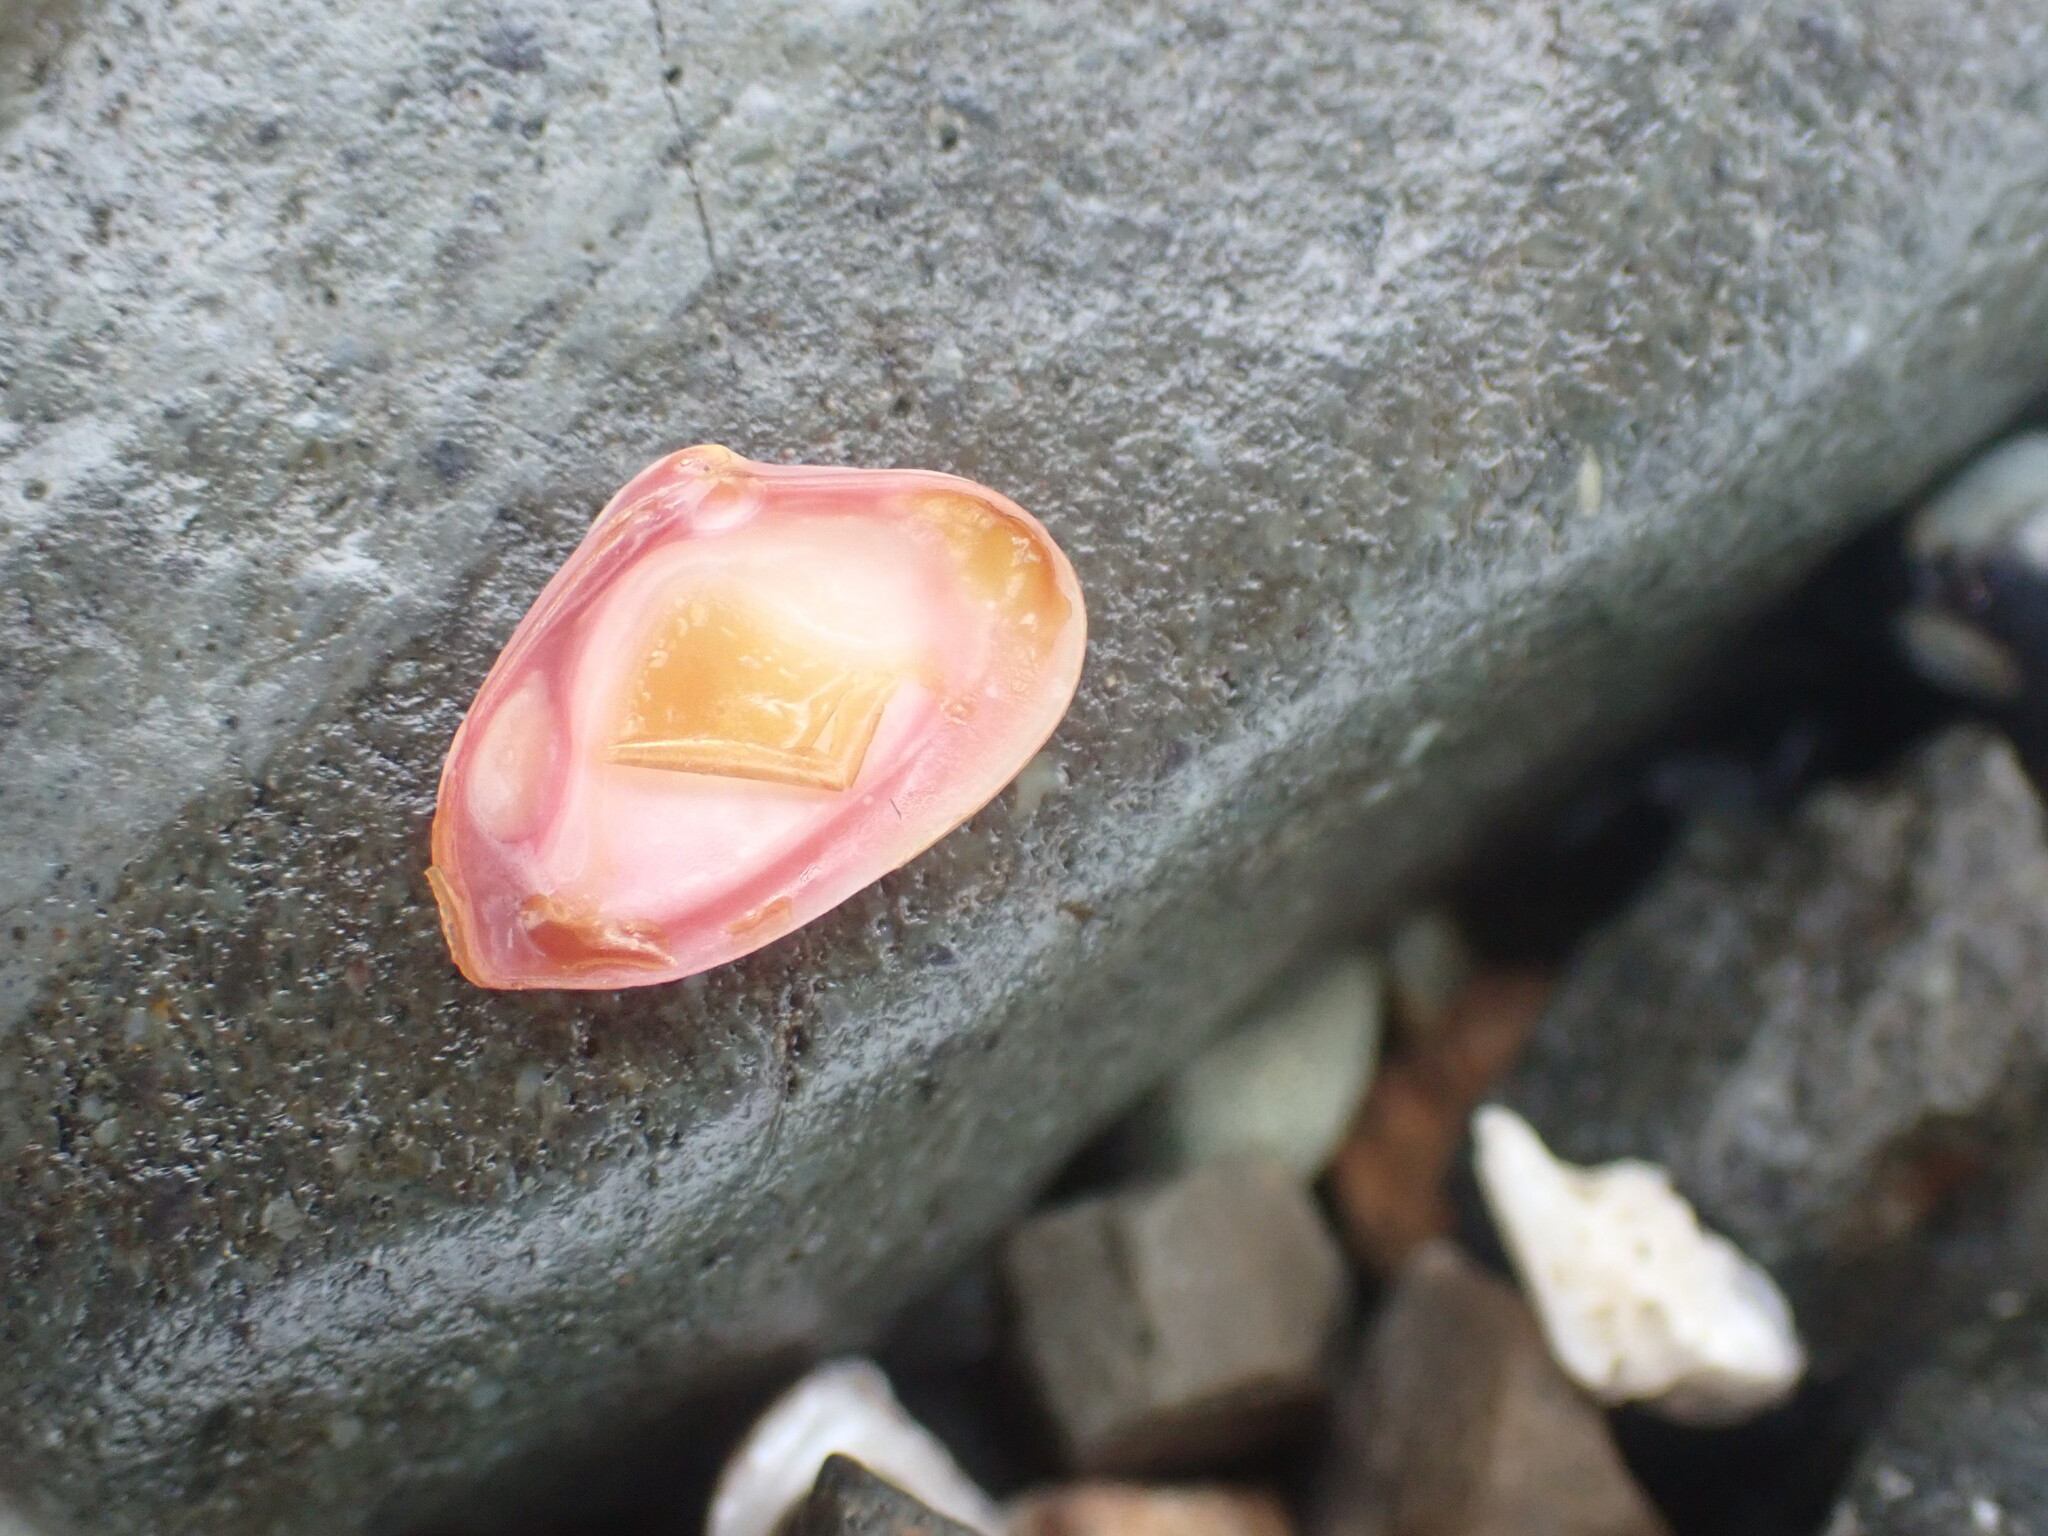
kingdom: Animalia
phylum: Mollusca
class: Bivalvia
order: Myida
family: Corbulidae
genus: Corbula
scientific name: Corbula zelandica
